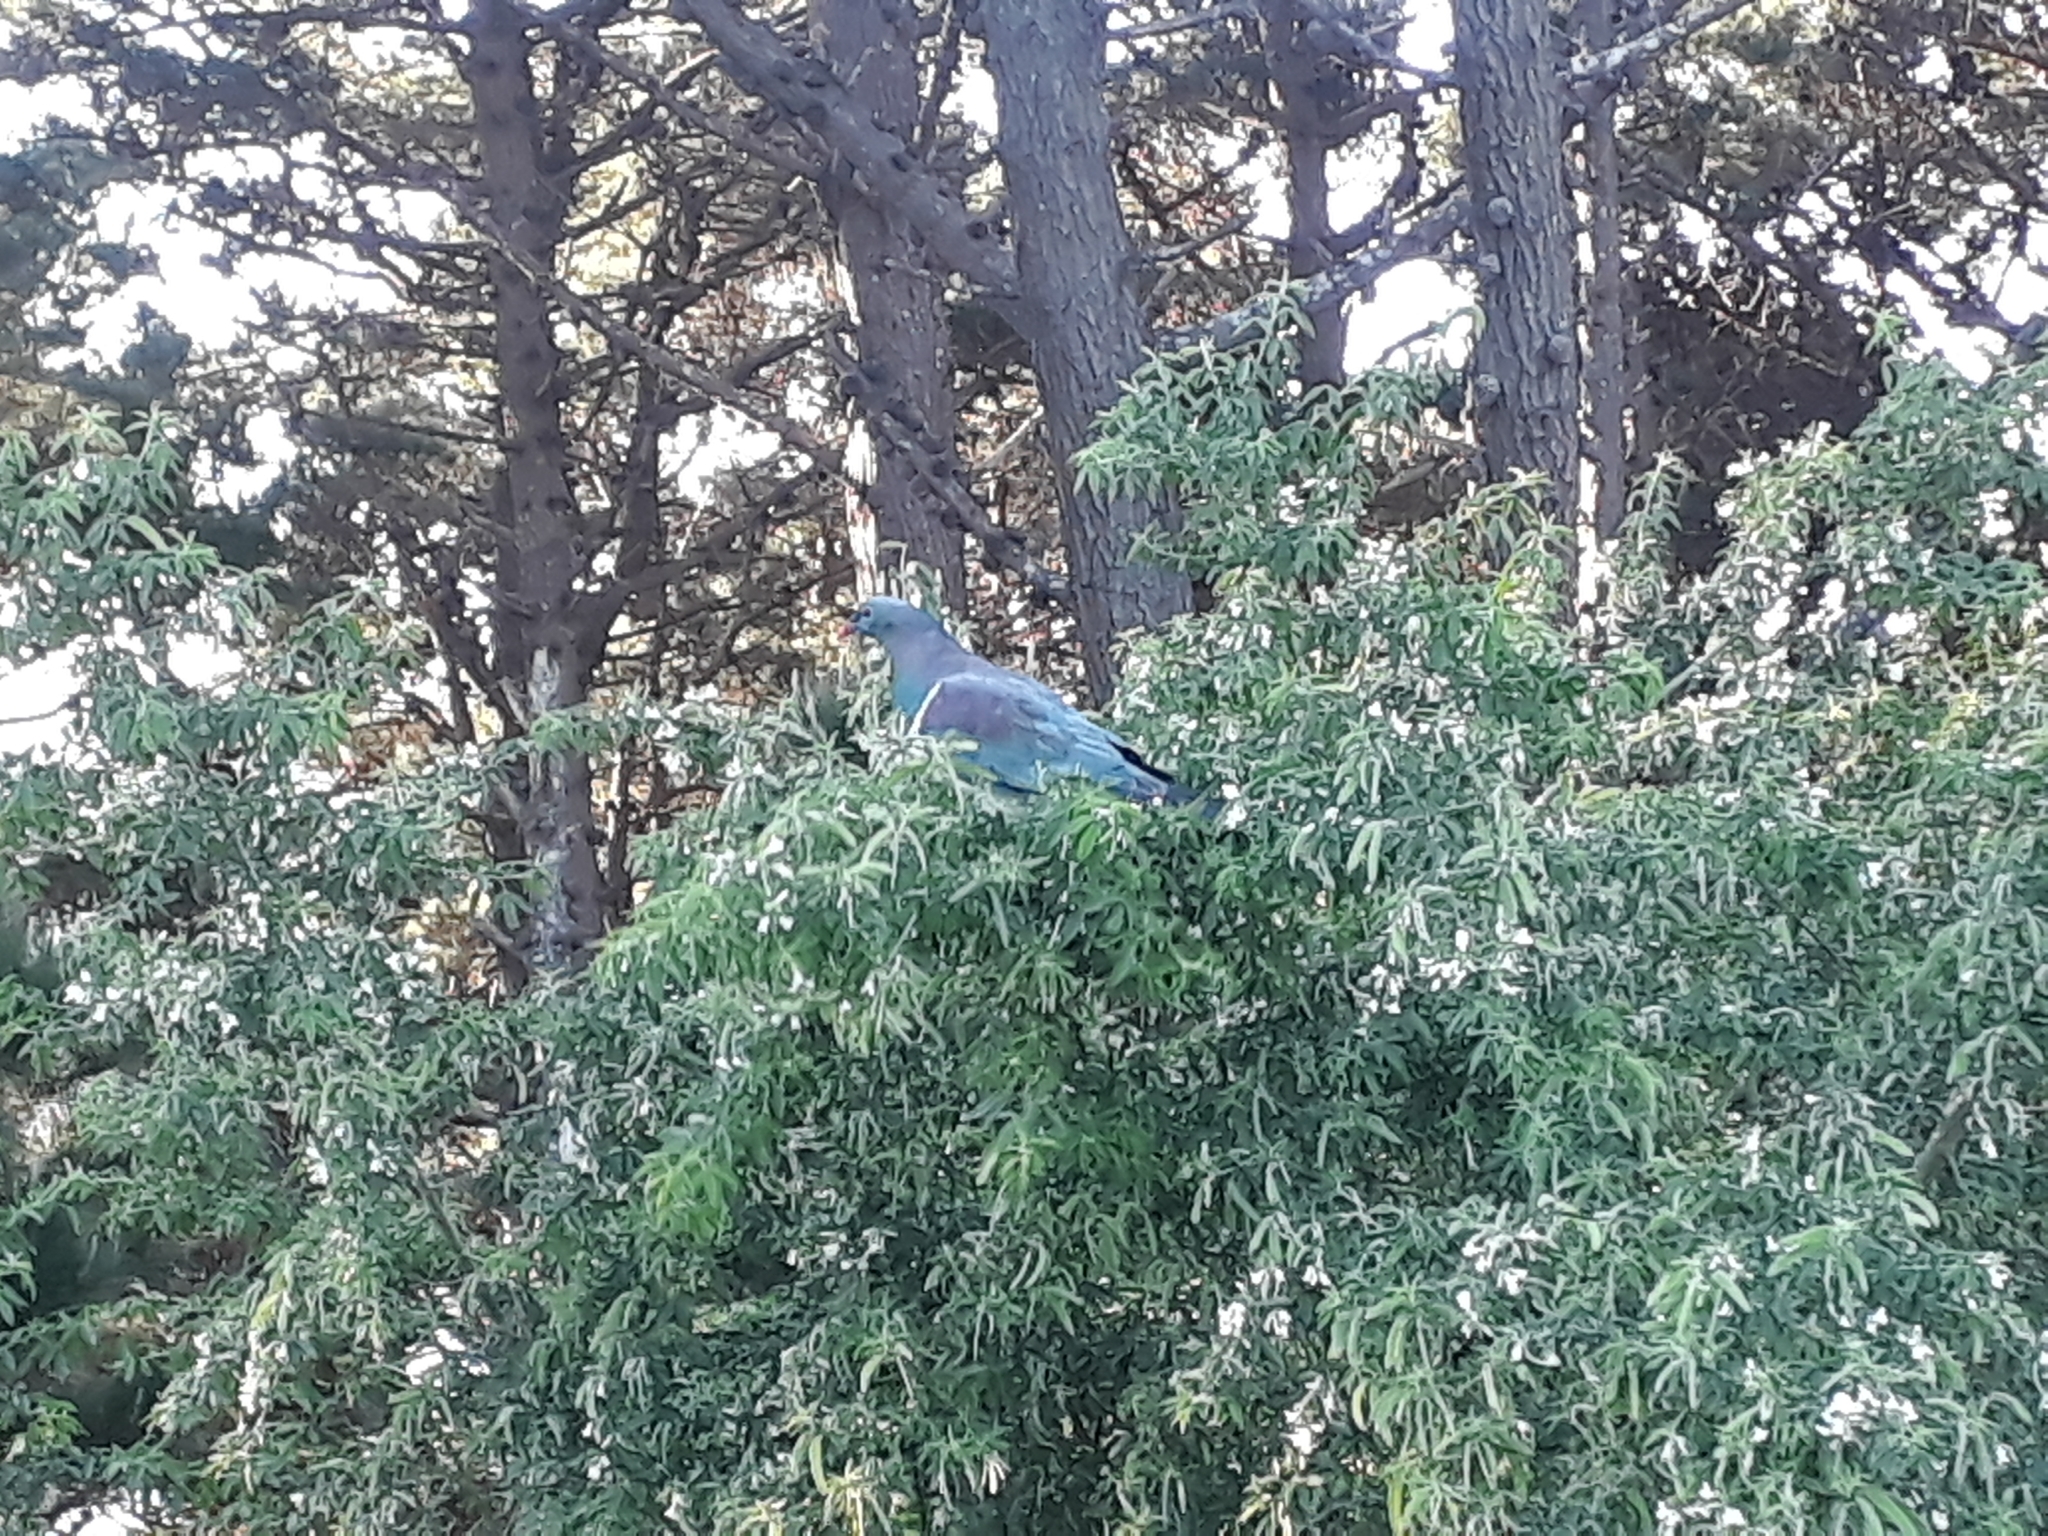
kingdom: Animalia
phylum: Chordata
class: Aves
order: Columbiformes
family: Columbidae
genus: Hemiphaga
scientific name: Hemiphaga novaeseelandiae
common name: New zealand pigeon
